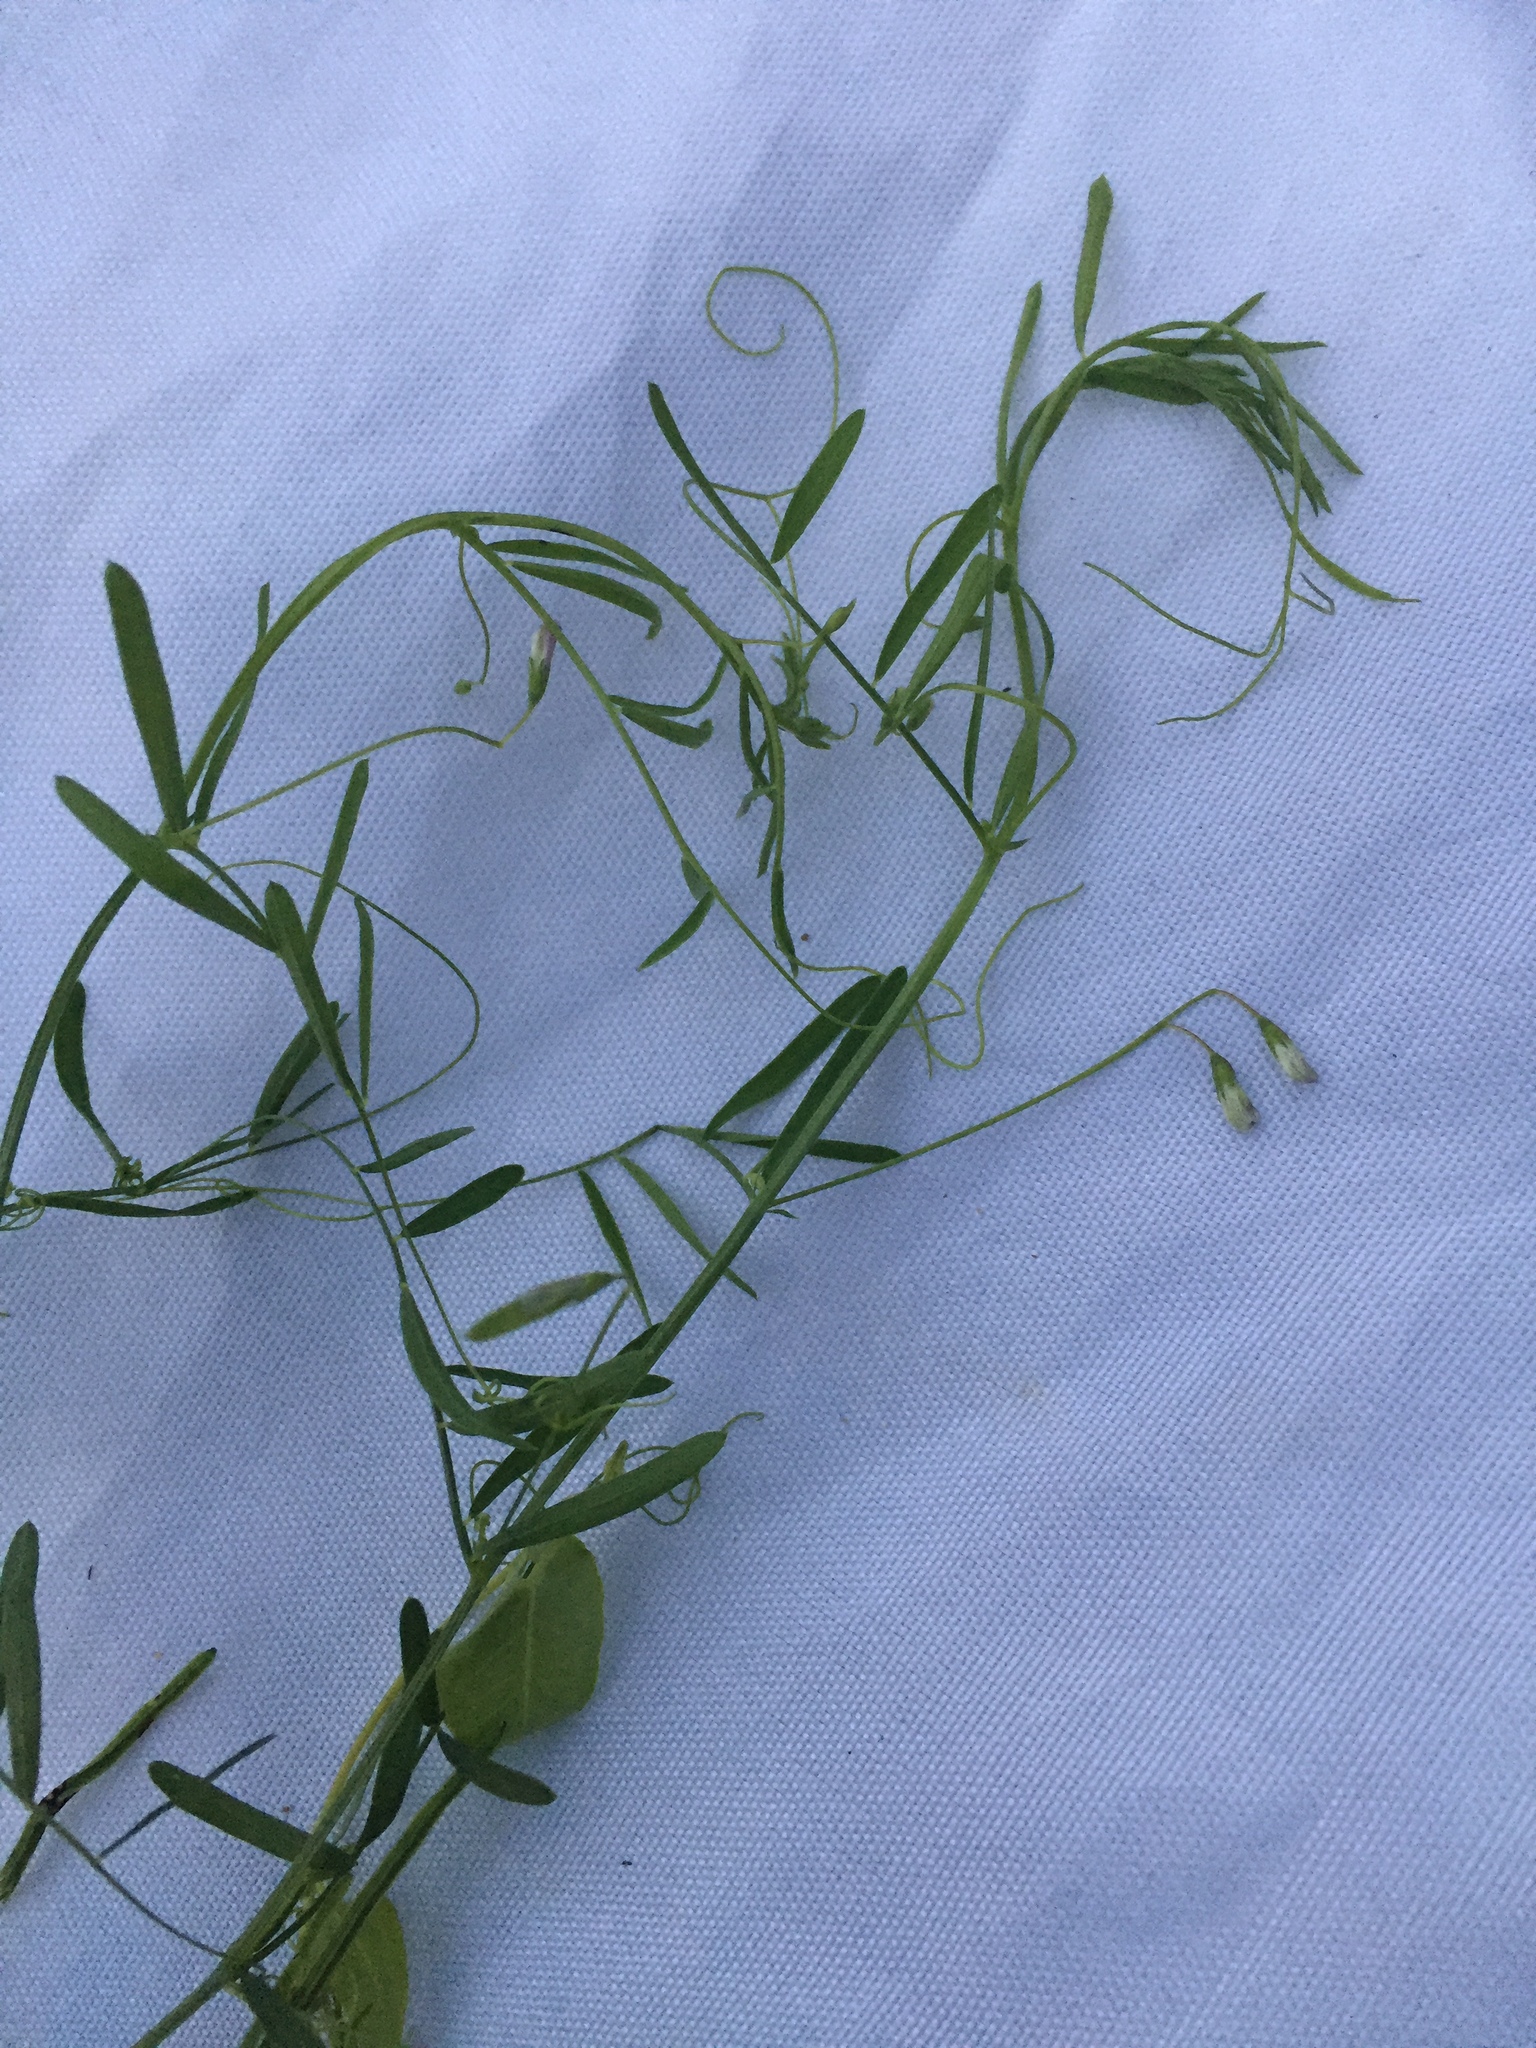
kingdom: Plantae
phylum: Tracheophyta
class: Magnoliopsida
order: Fabales
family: Fabaceae
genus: Vicia
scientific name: Vicia tetrasperma
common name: Smooth tare
